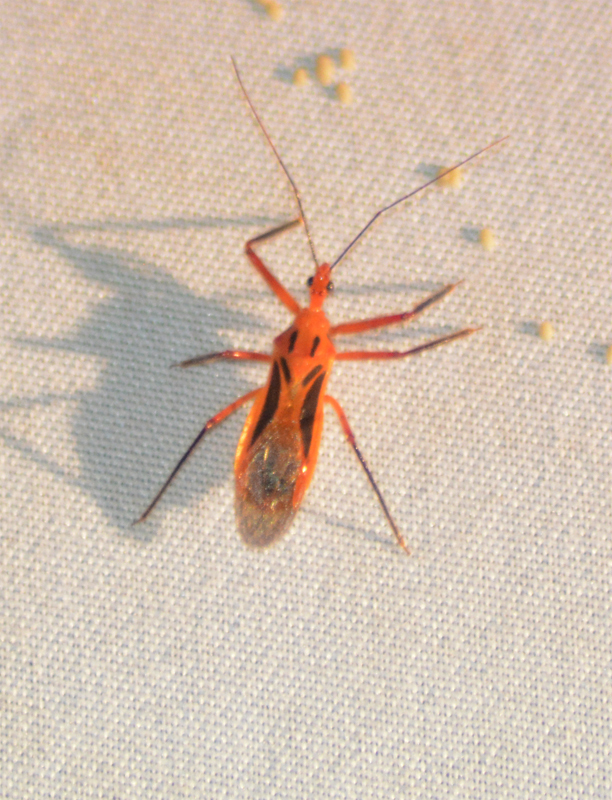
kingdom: Animalia
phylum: Arthropoda
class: Insecta
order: Hemiptera
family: Reduviidae
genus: Repipta
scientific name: Repipta taurus
